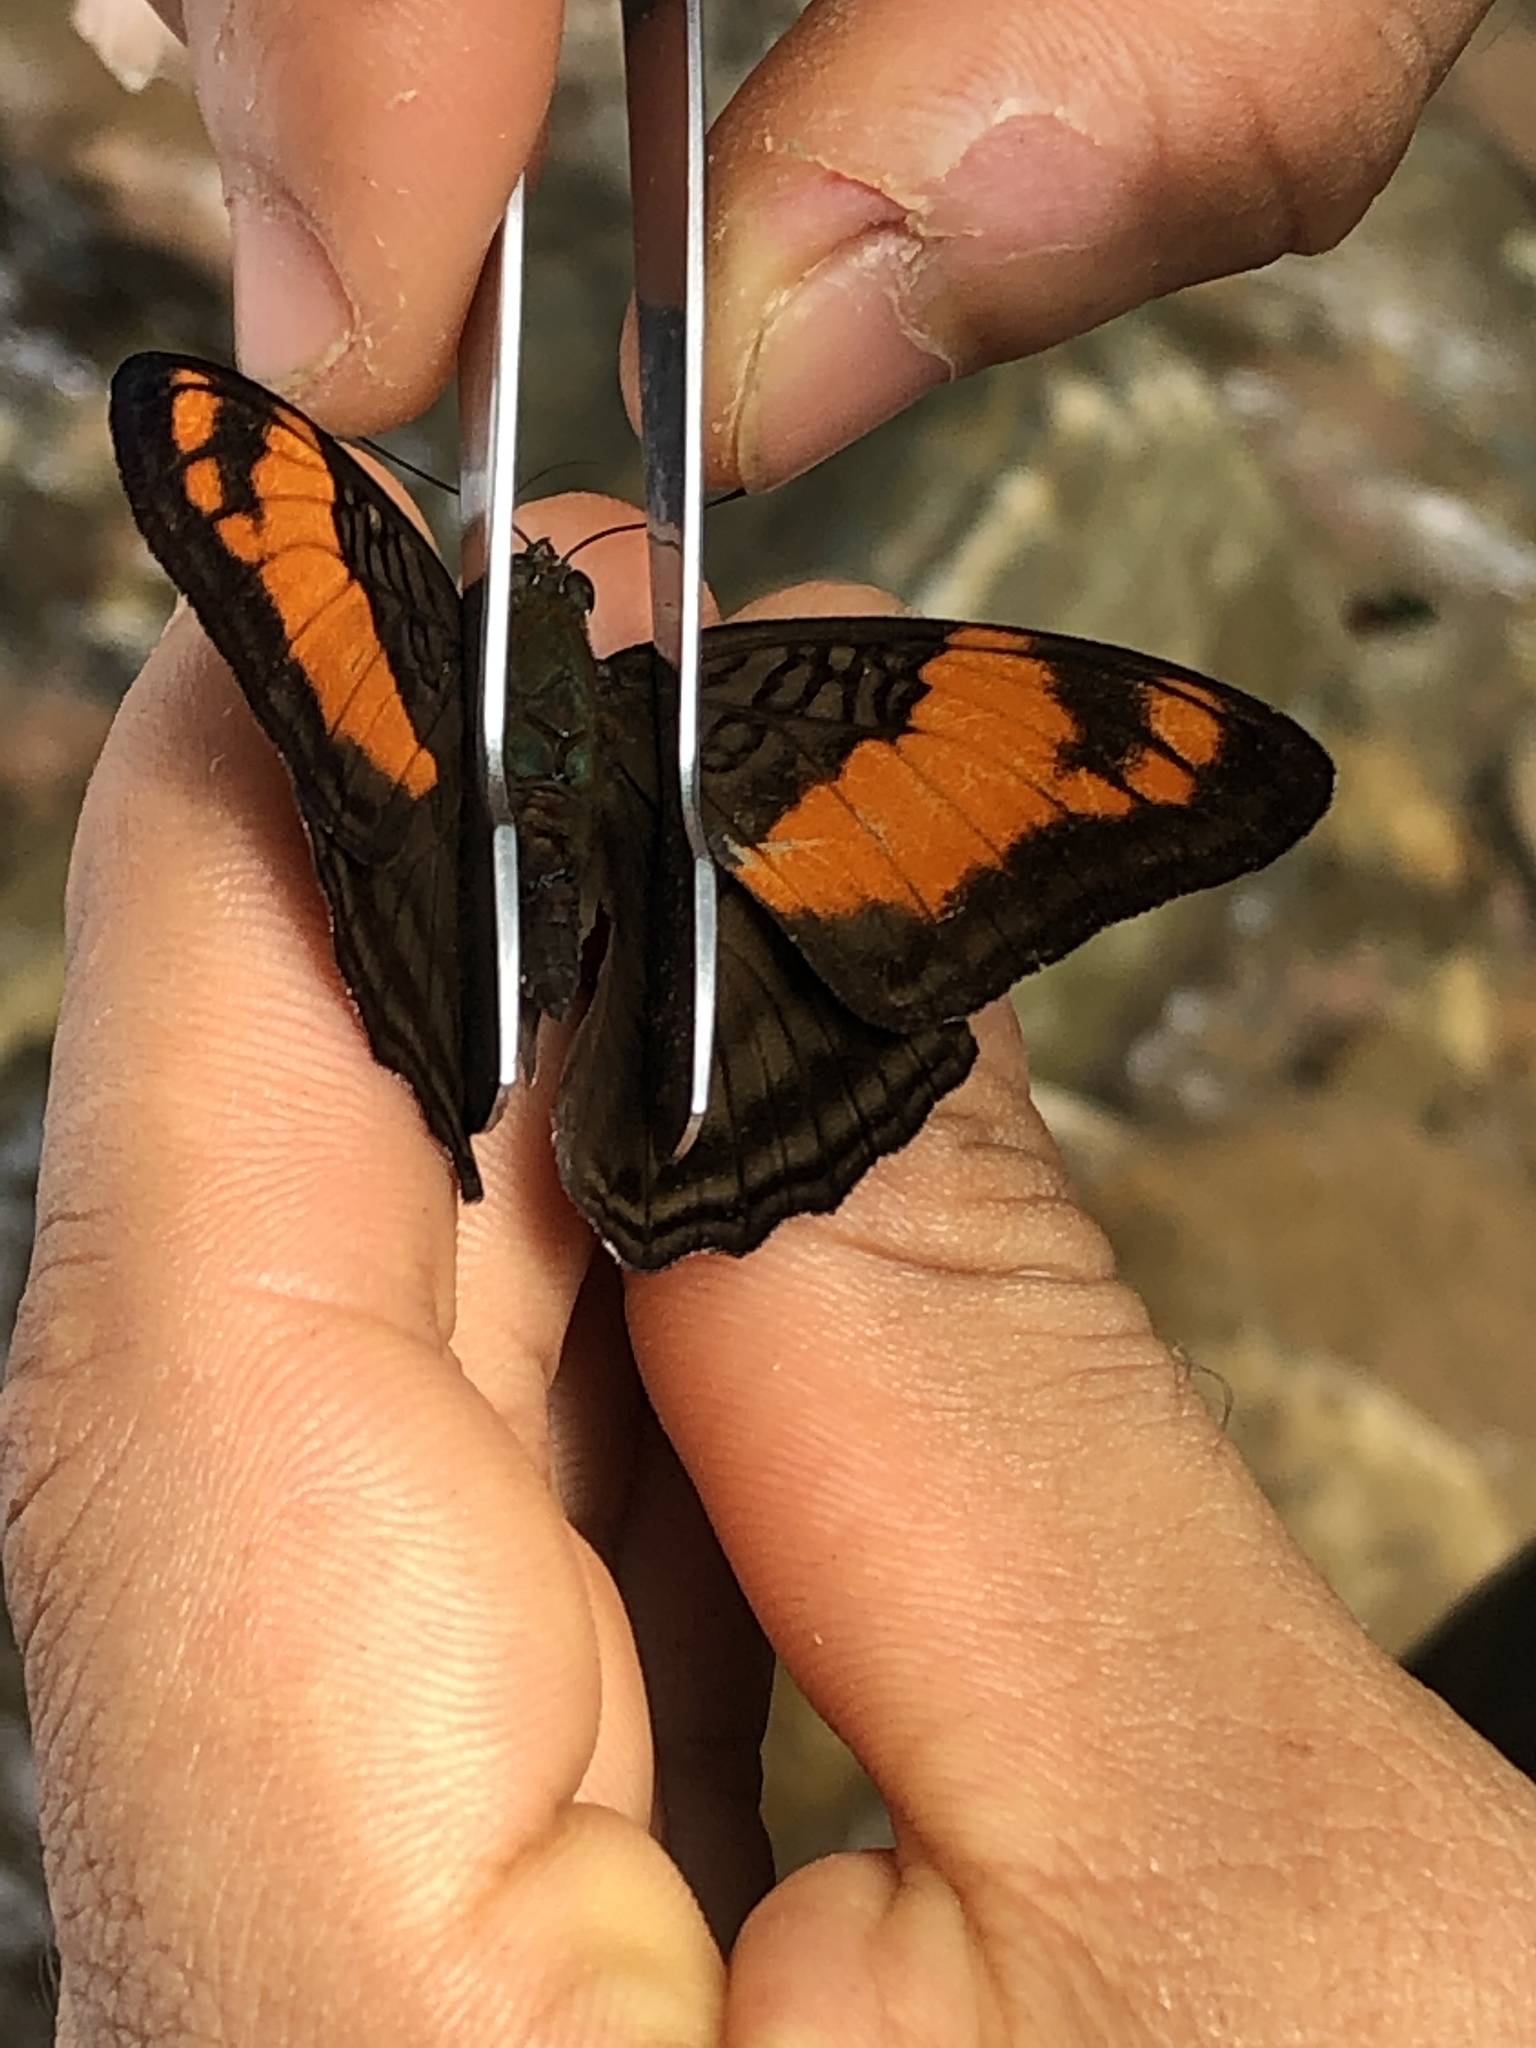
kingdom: Animalia
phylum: Arthropoda
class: Insecta
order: Lepidoptera
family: Nymphalidae
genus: Limenitis
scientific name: Limenitis mesentina
